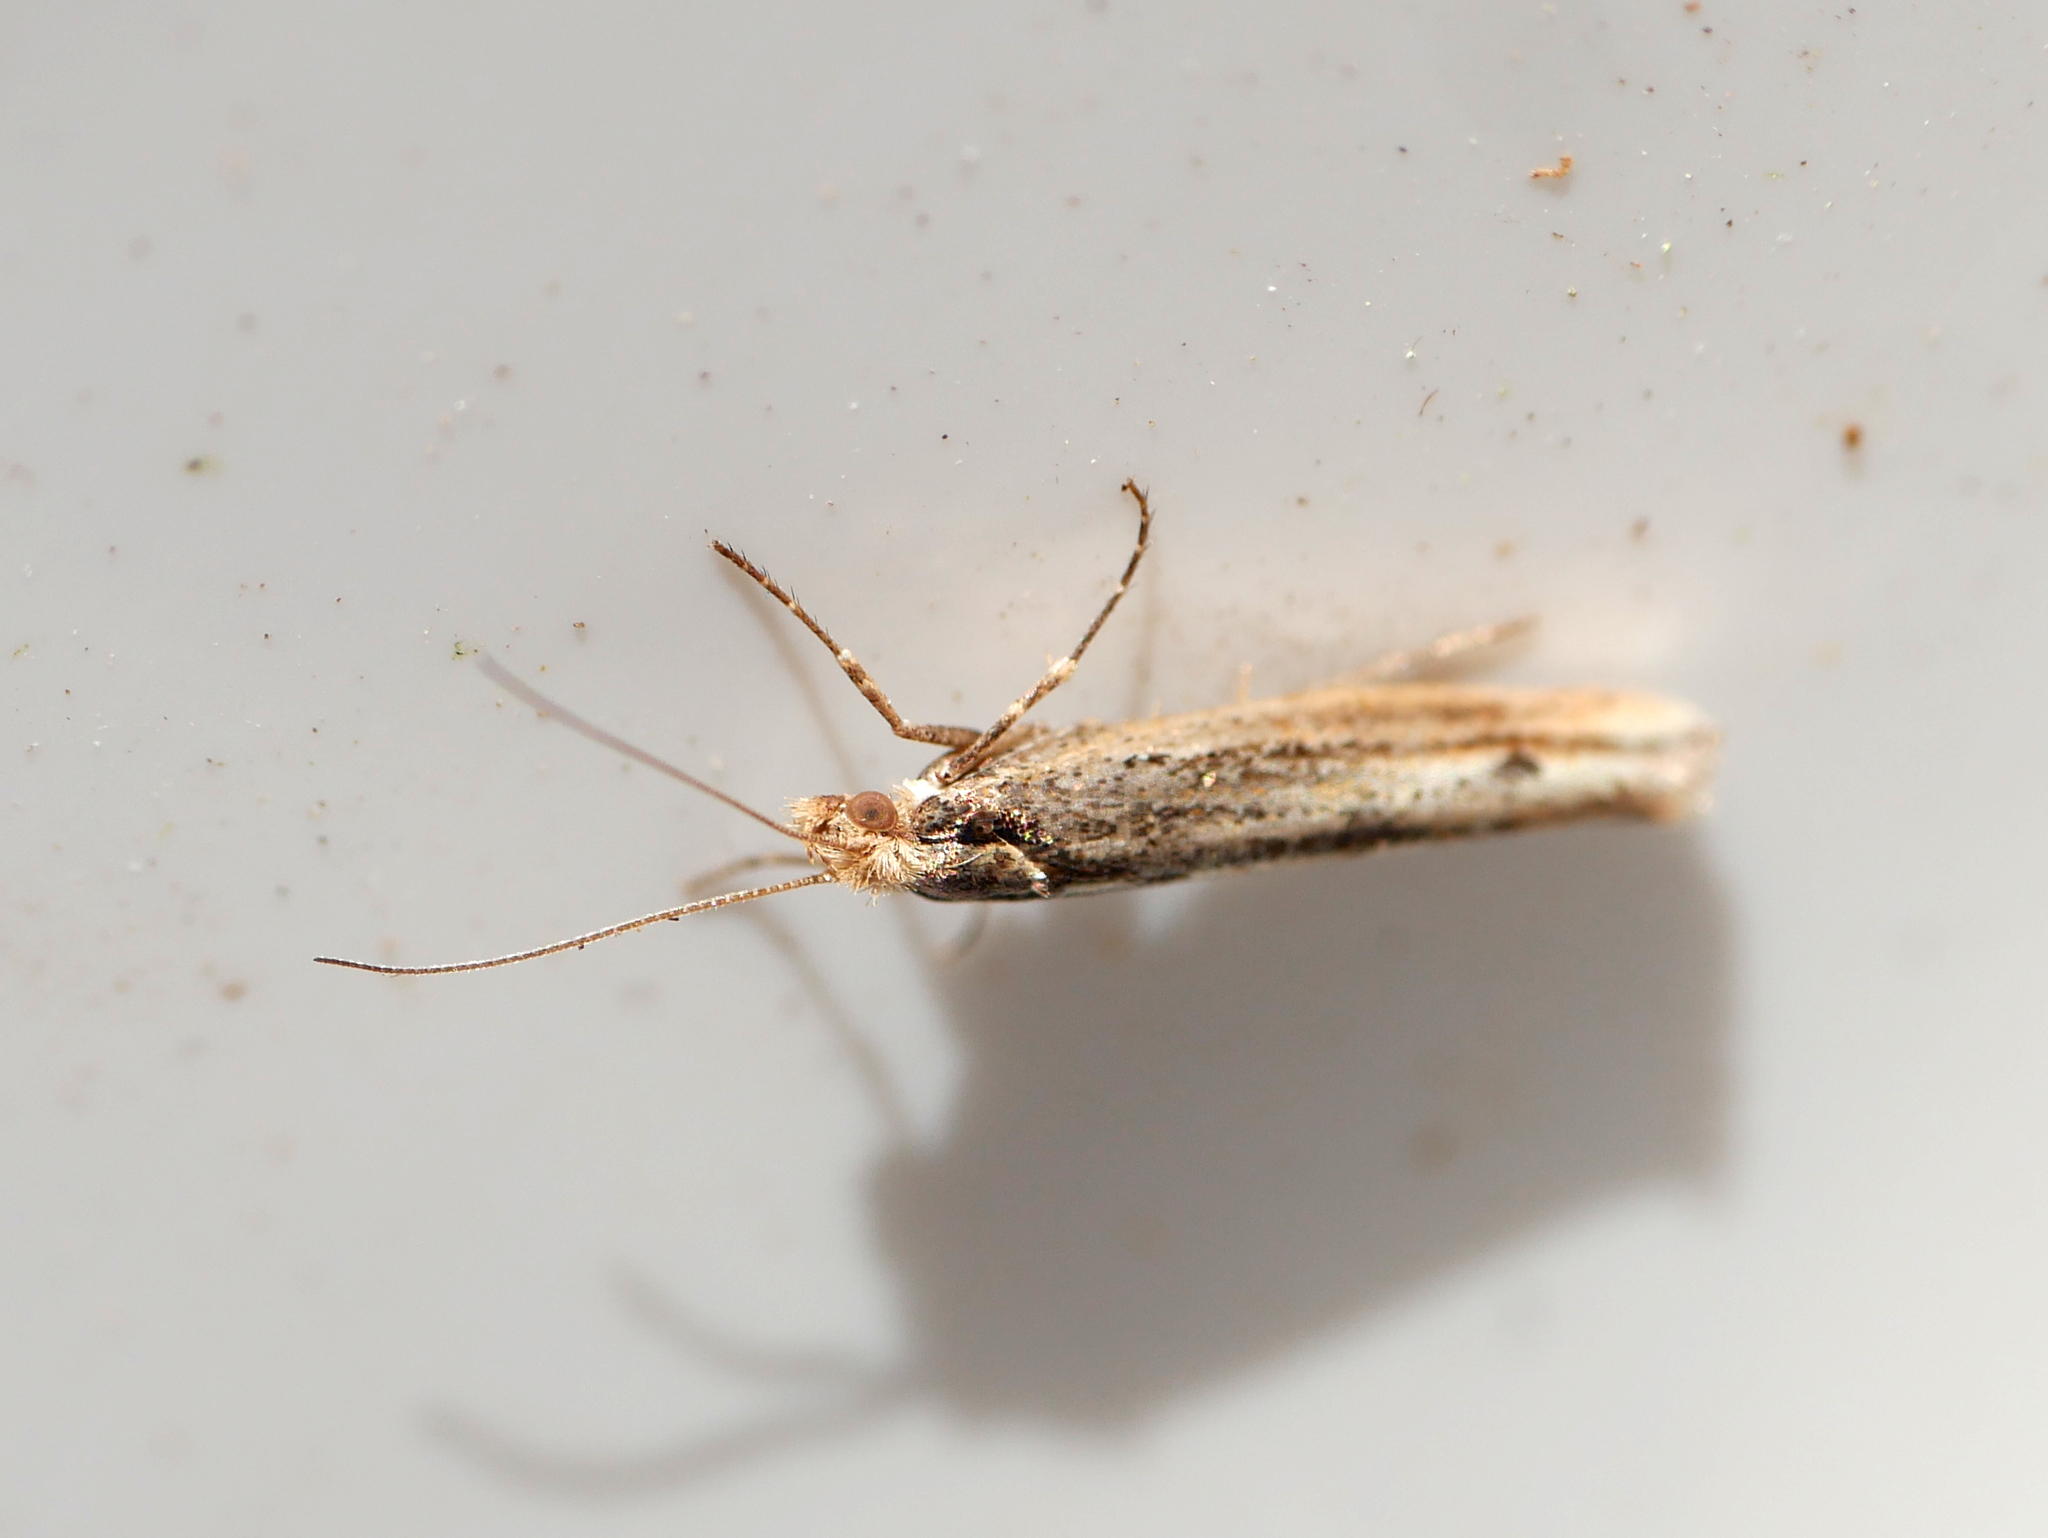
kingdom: Animalia
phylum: Arthropoda
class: Insecta
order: Lepidoptera
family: Plutellidae
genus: Ypsolophus
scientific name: Ypsolophus ustella
